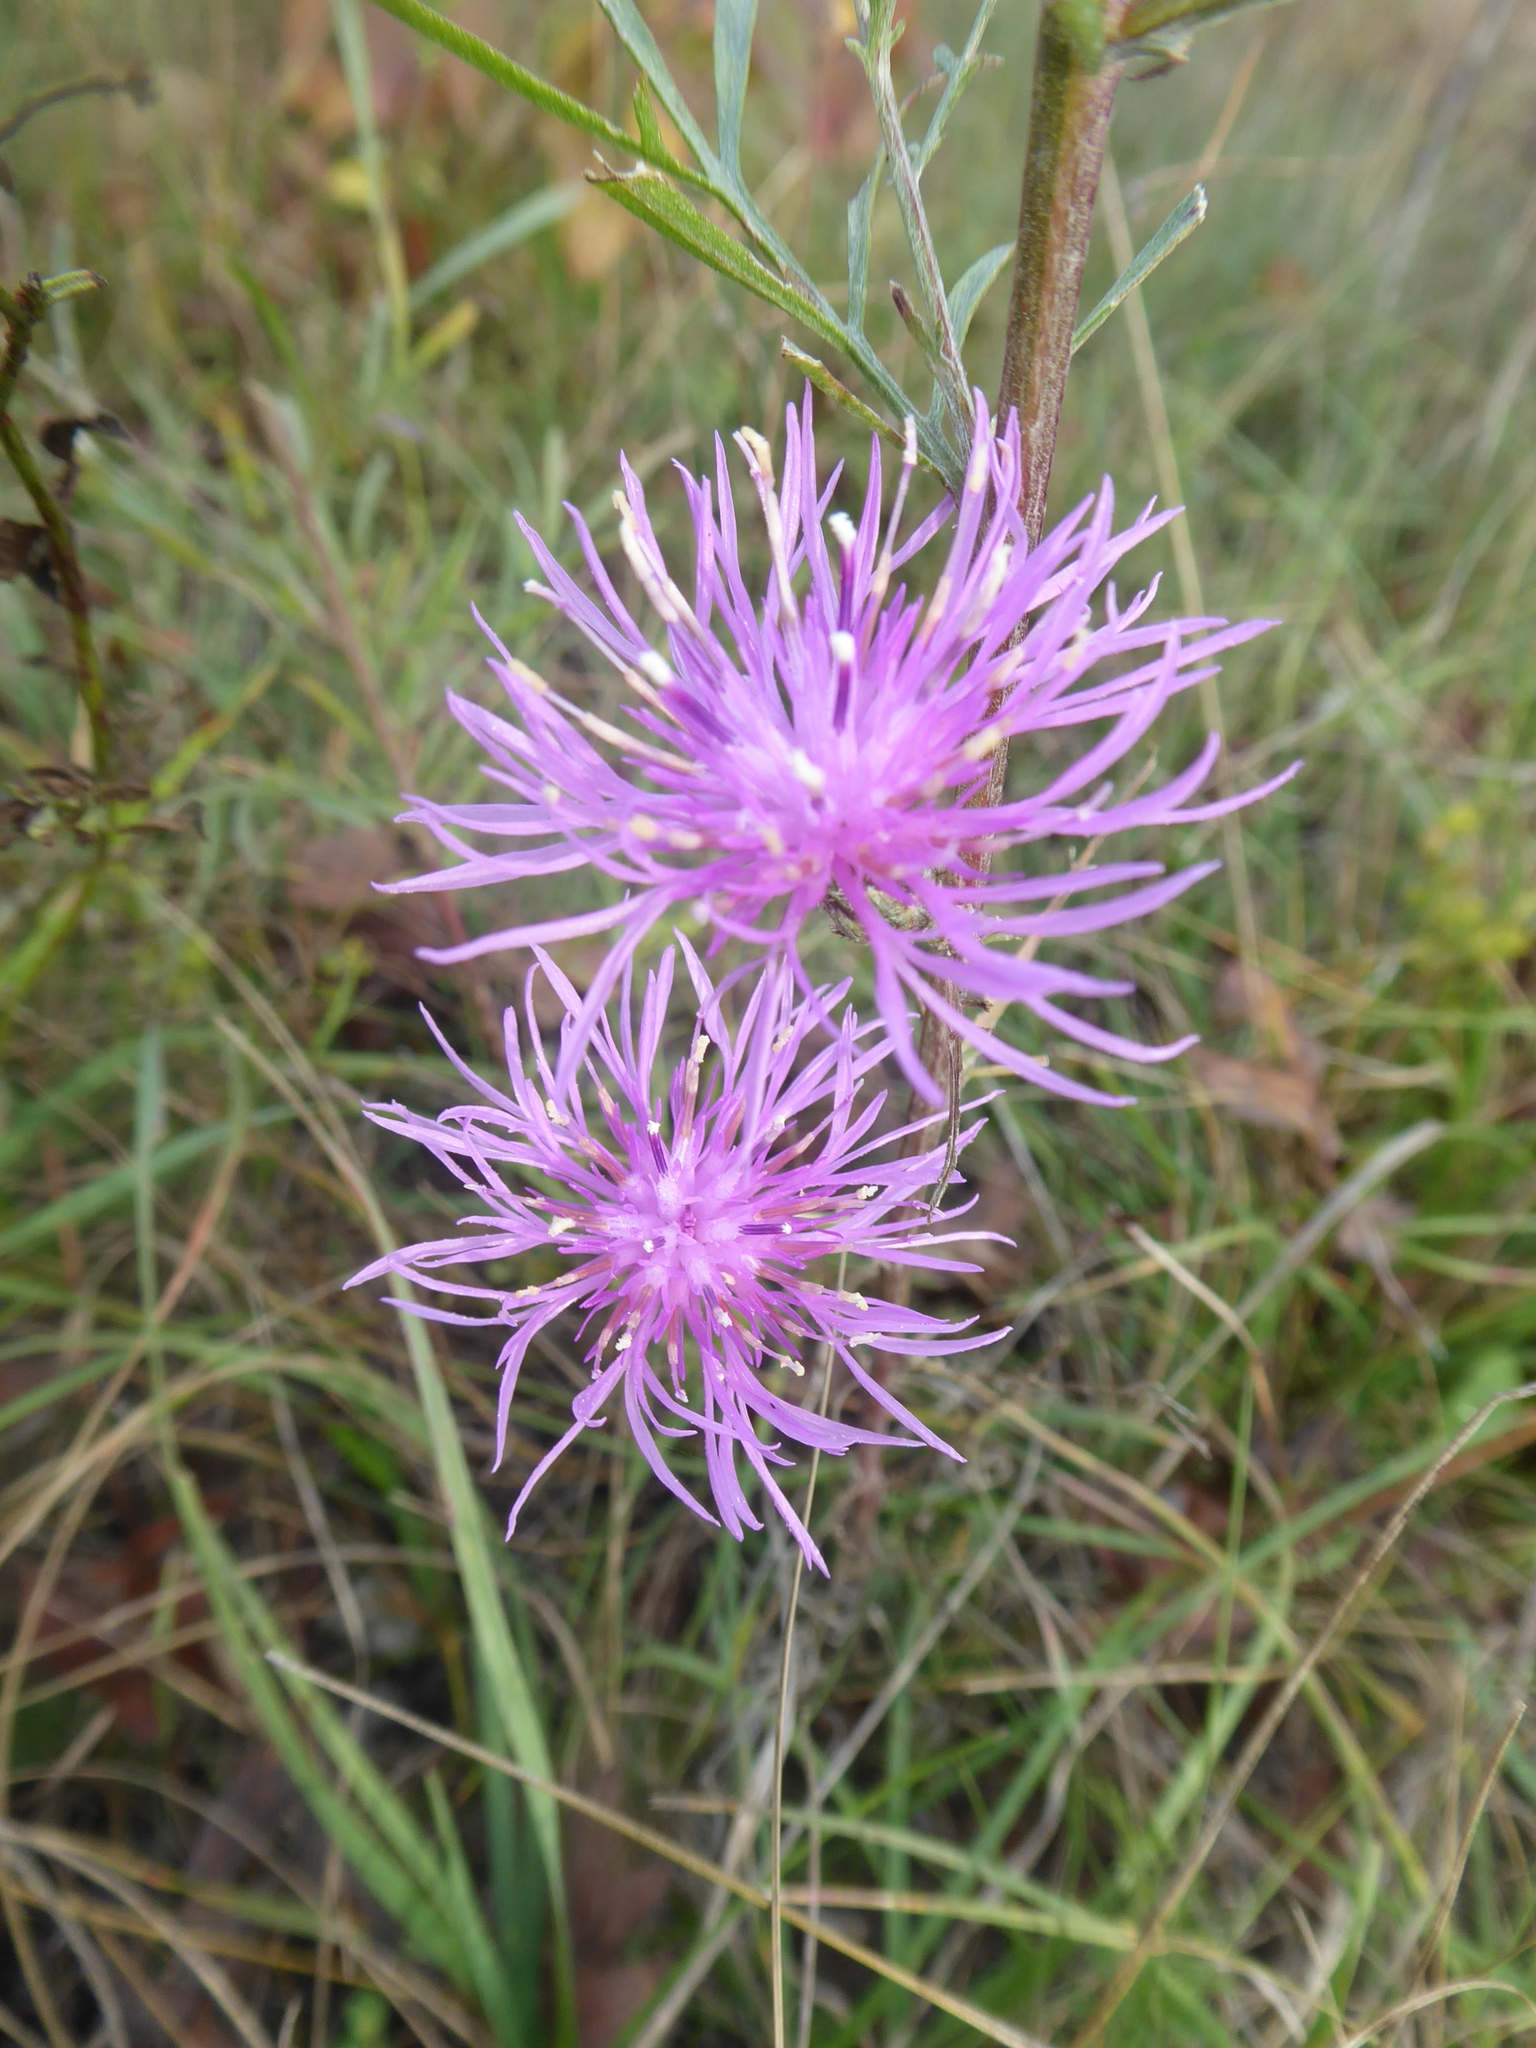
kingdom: Plantae
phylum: Tracheophyta
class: Magnoliopsida
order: Asterales
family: Asteraceae
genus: Centaurea
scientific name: Centaurea stoebe
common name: Spotted knapweed
